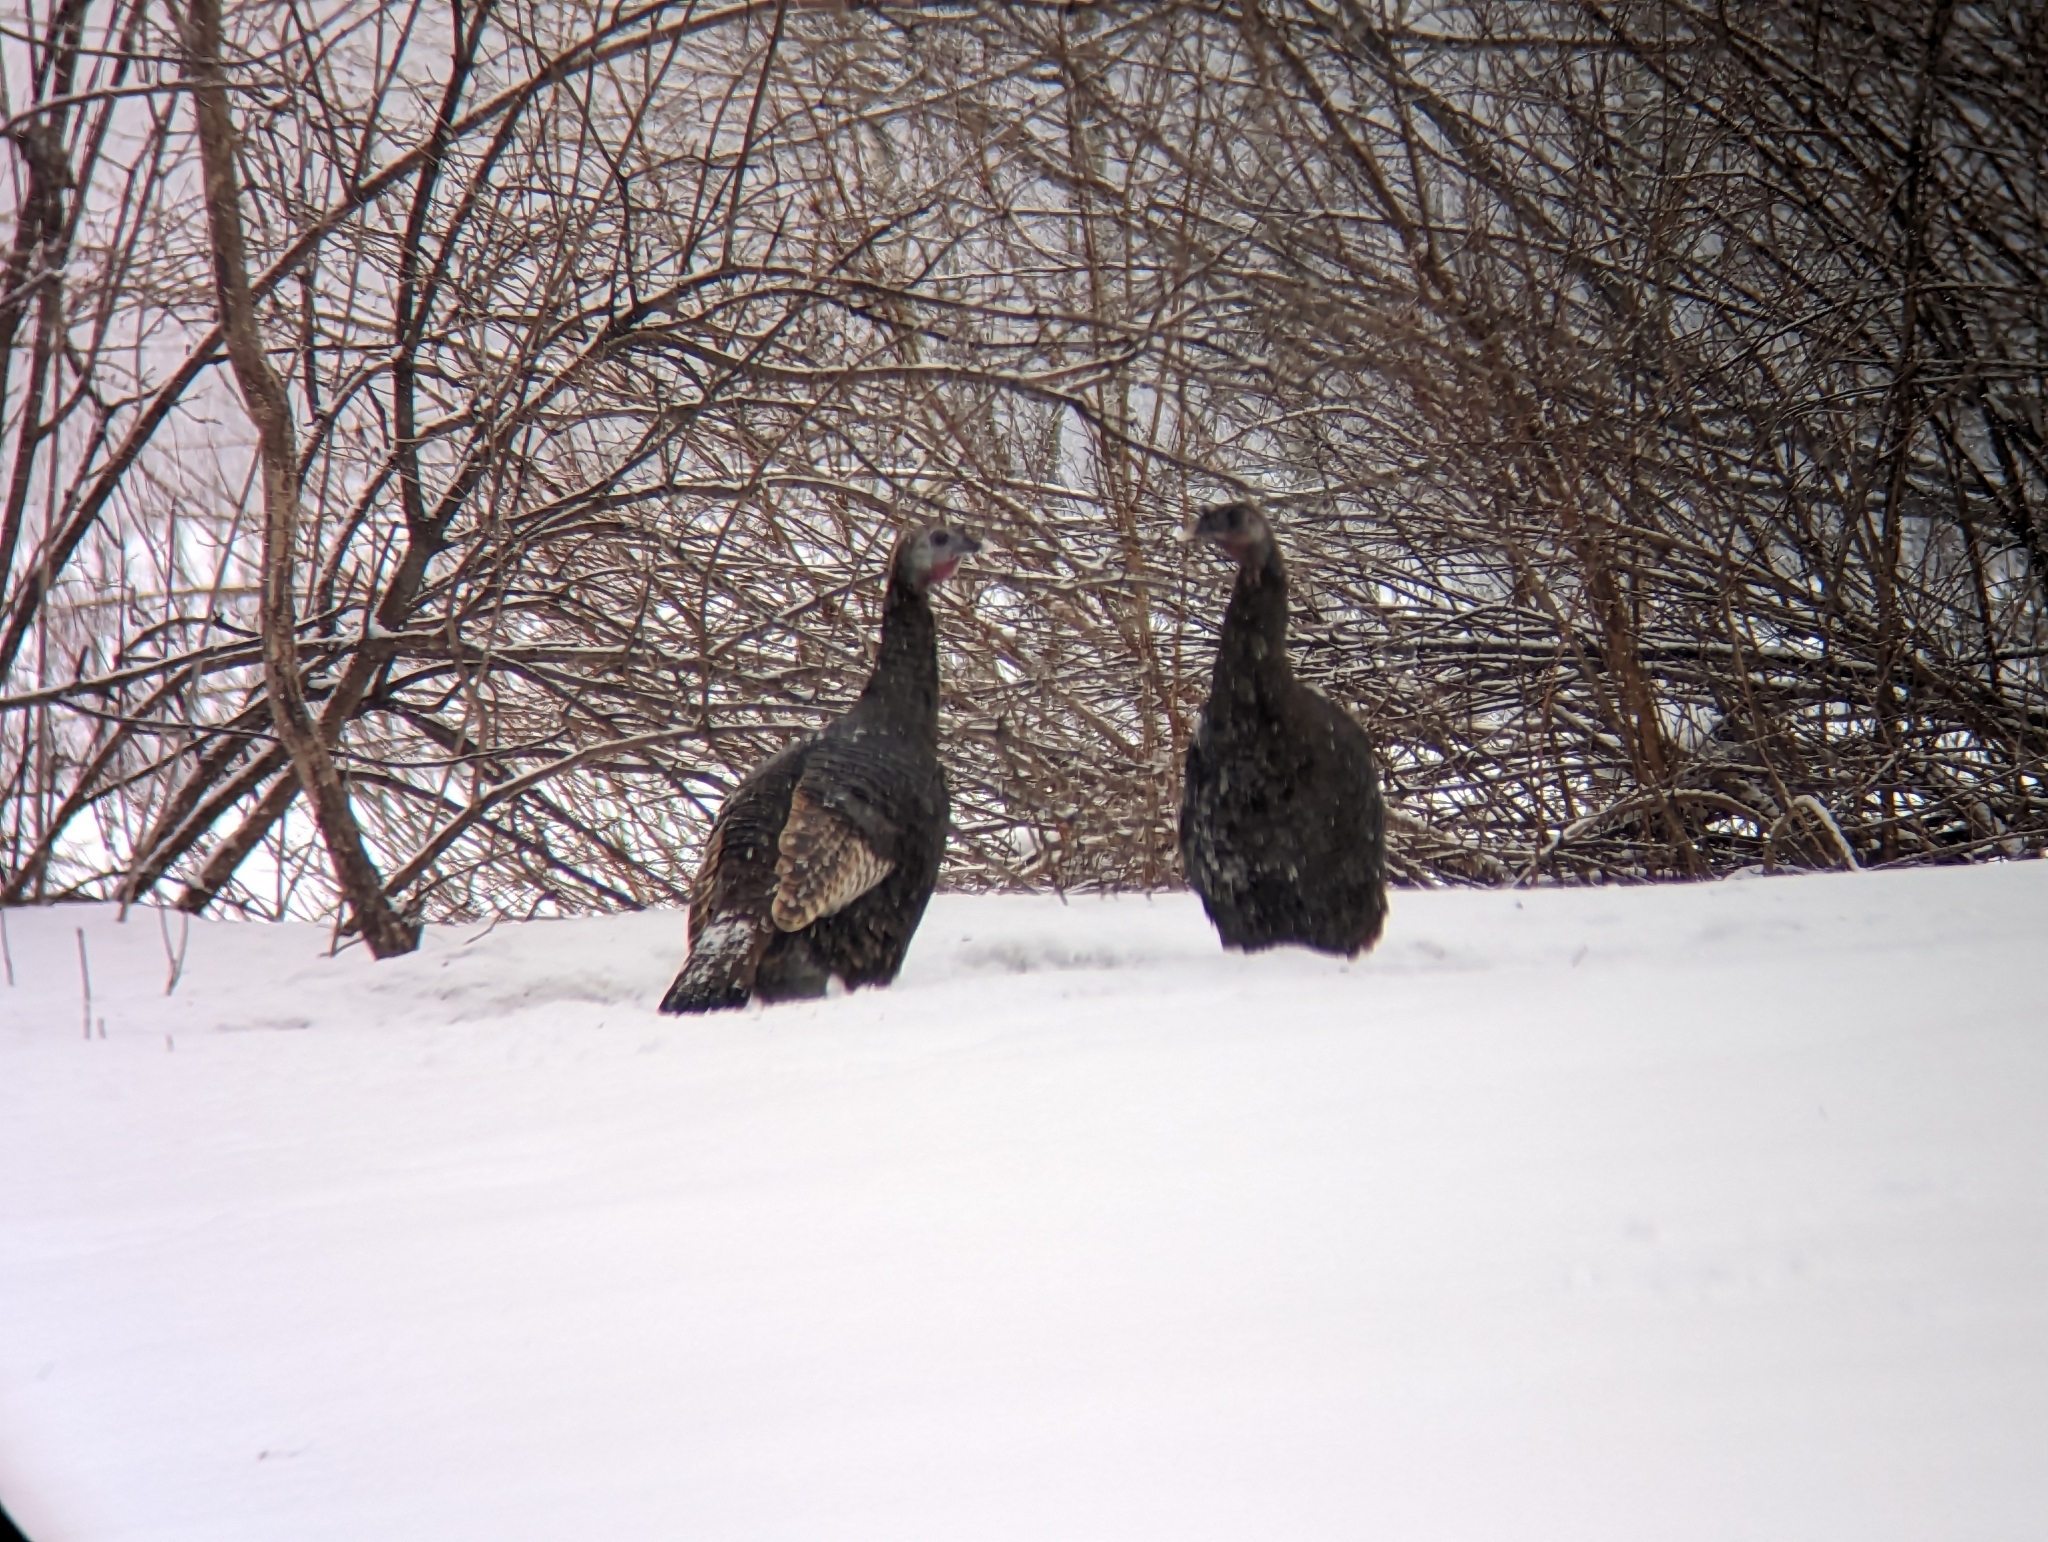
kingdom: Animalia
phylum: Chordata
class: Aves
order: Galliformes
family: Phasianidae
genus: Meleagris
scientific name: Meleagris gallopavo
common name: Wild turkey
